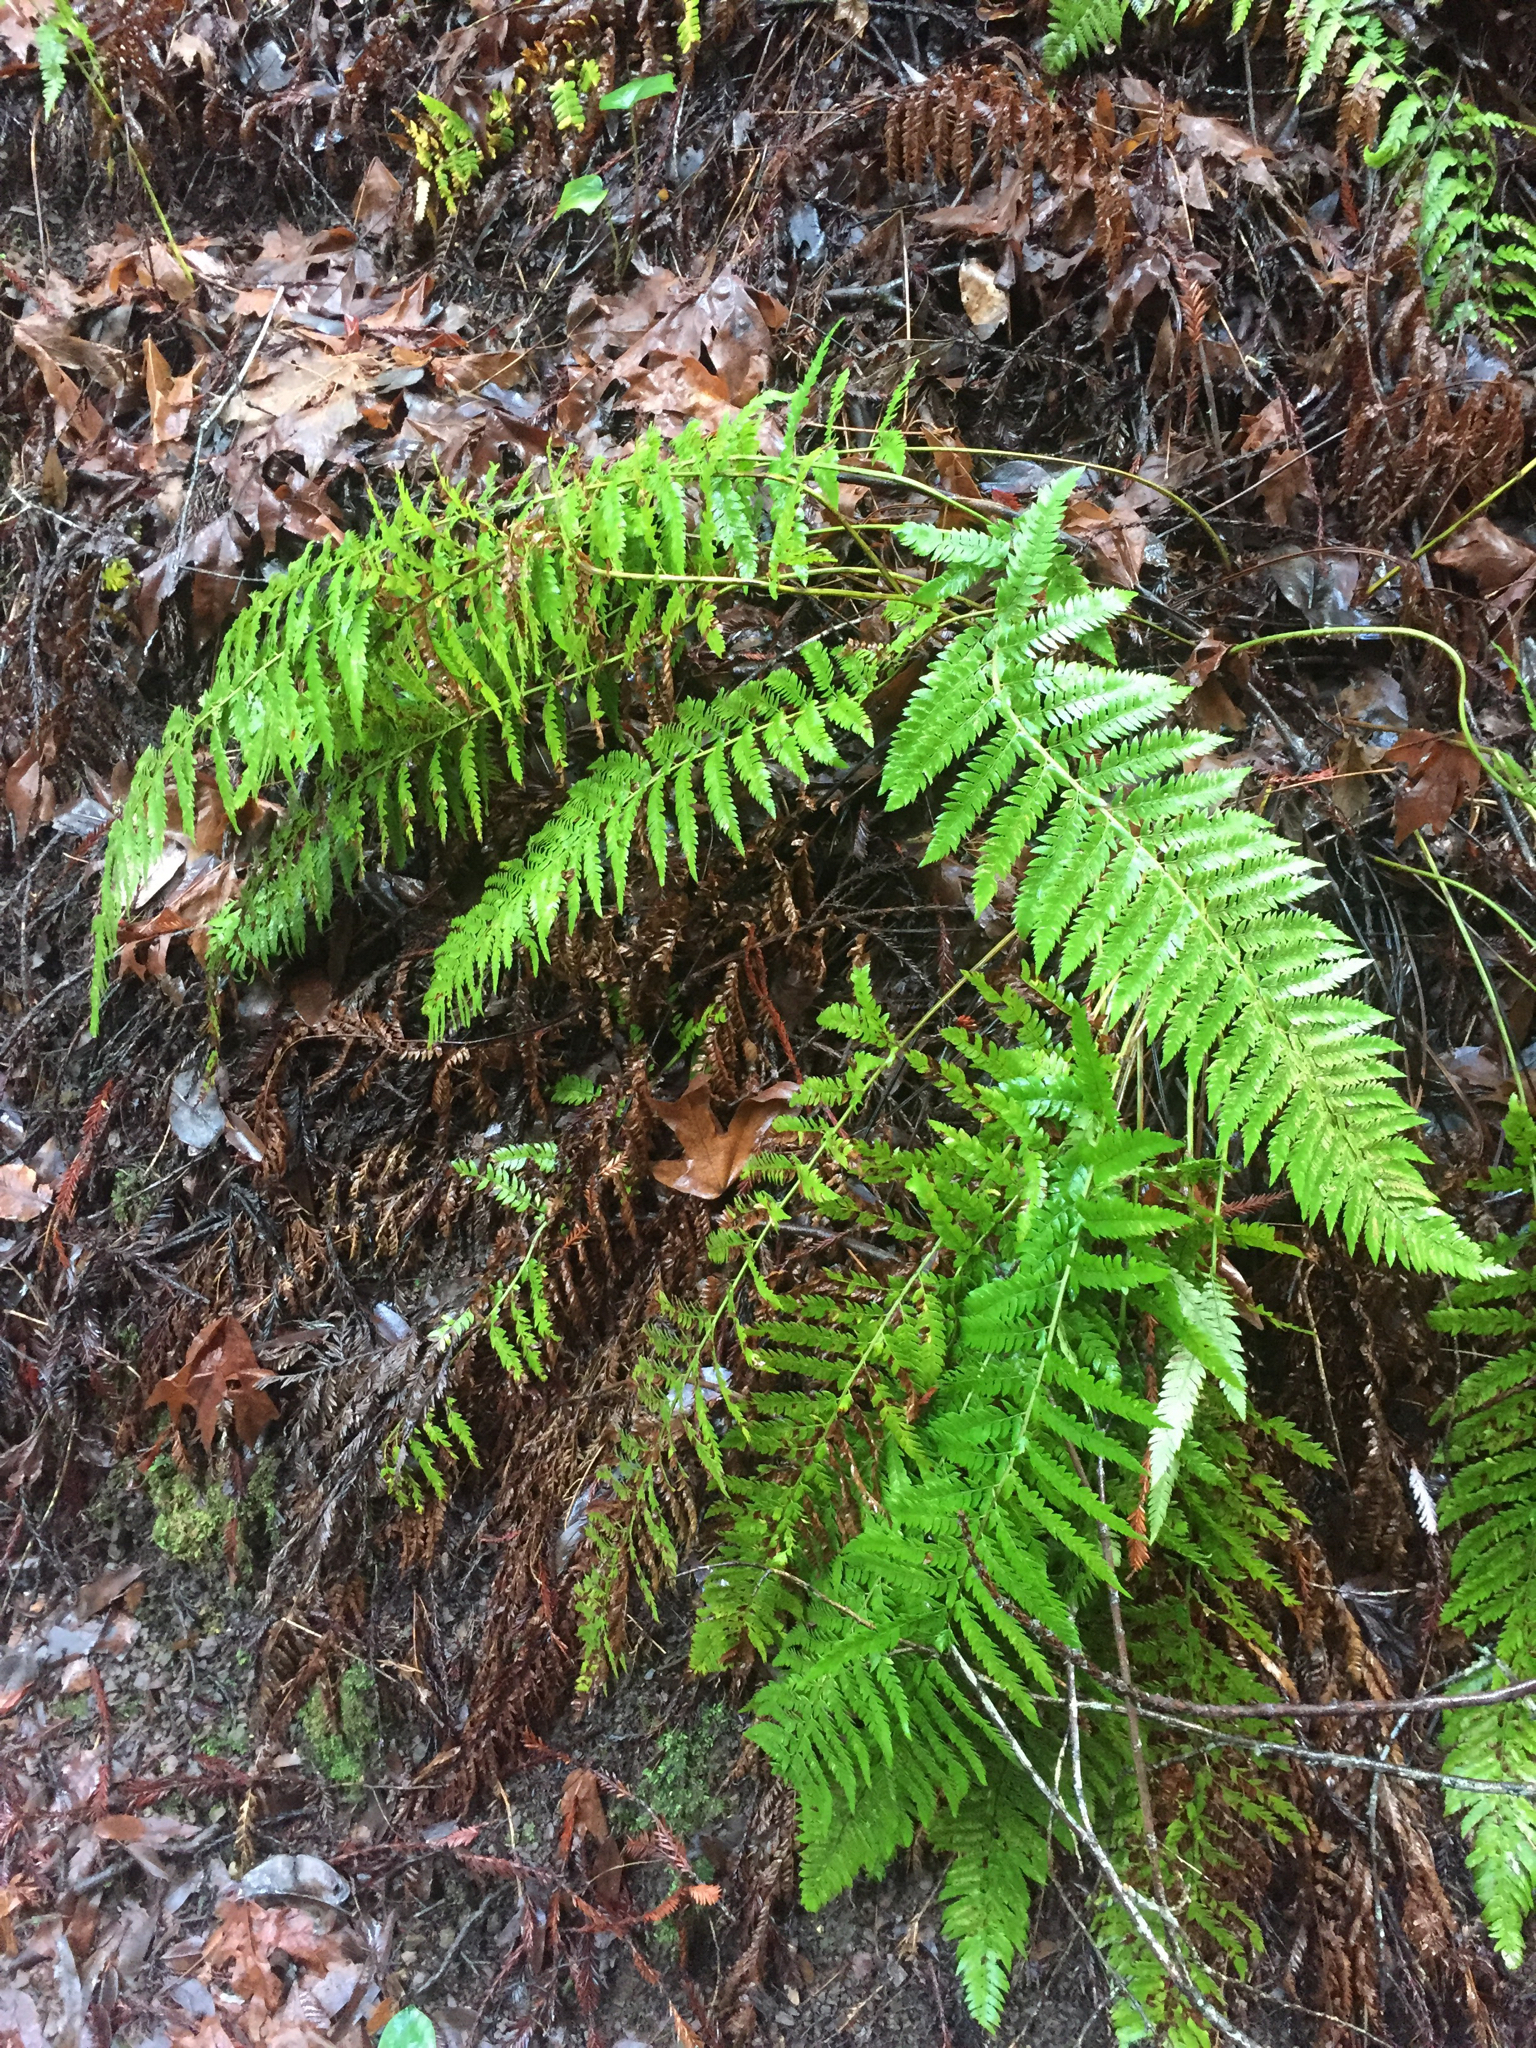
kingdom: Plantae
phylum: Tracheophyta
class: Polypodiopsida
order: Polypodiales
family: Dryopteridaceae
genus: Polystichum
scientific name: Polystichum dudleyi
